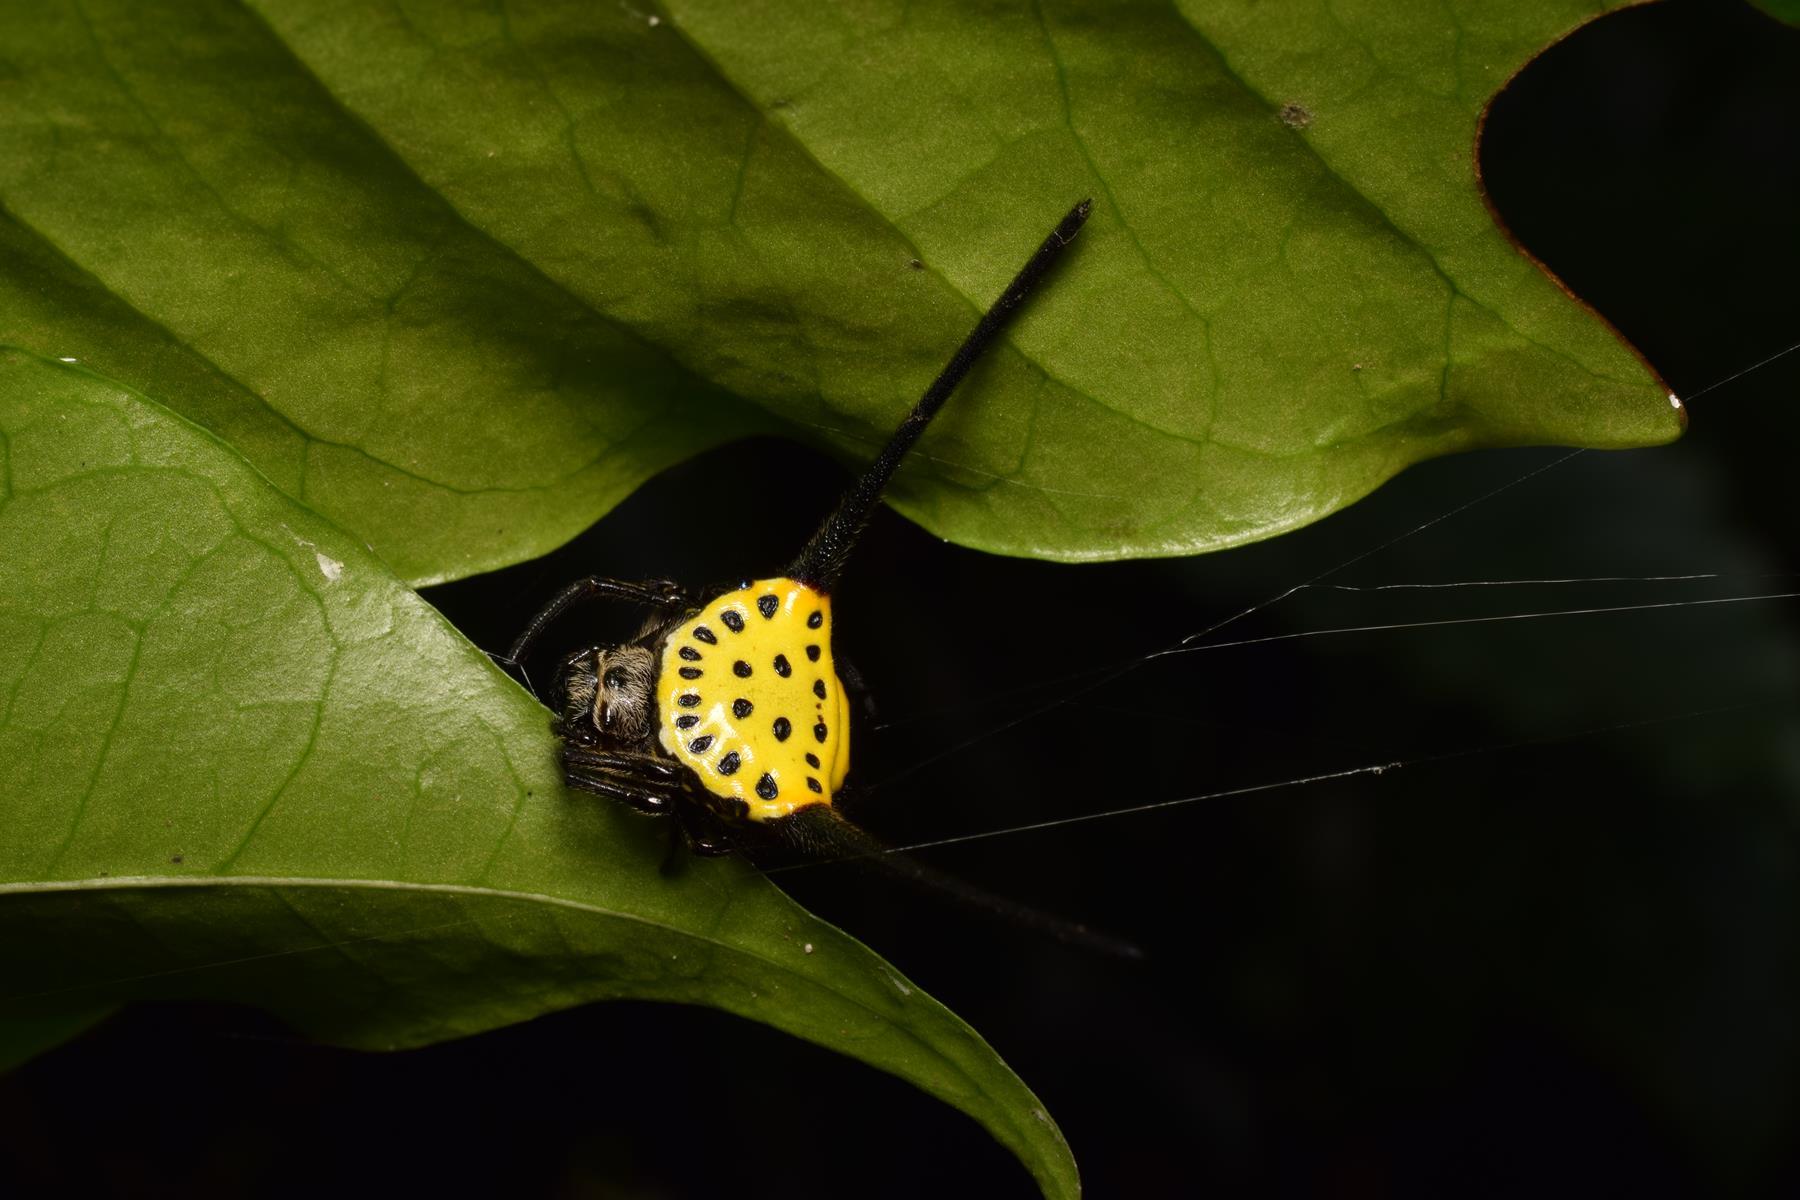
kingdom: Animalia
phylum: Arthropoda
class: Arachnida
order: Araneae
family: Araneidae
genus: Gasteracantha
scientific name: Gasteracantha dalyi
